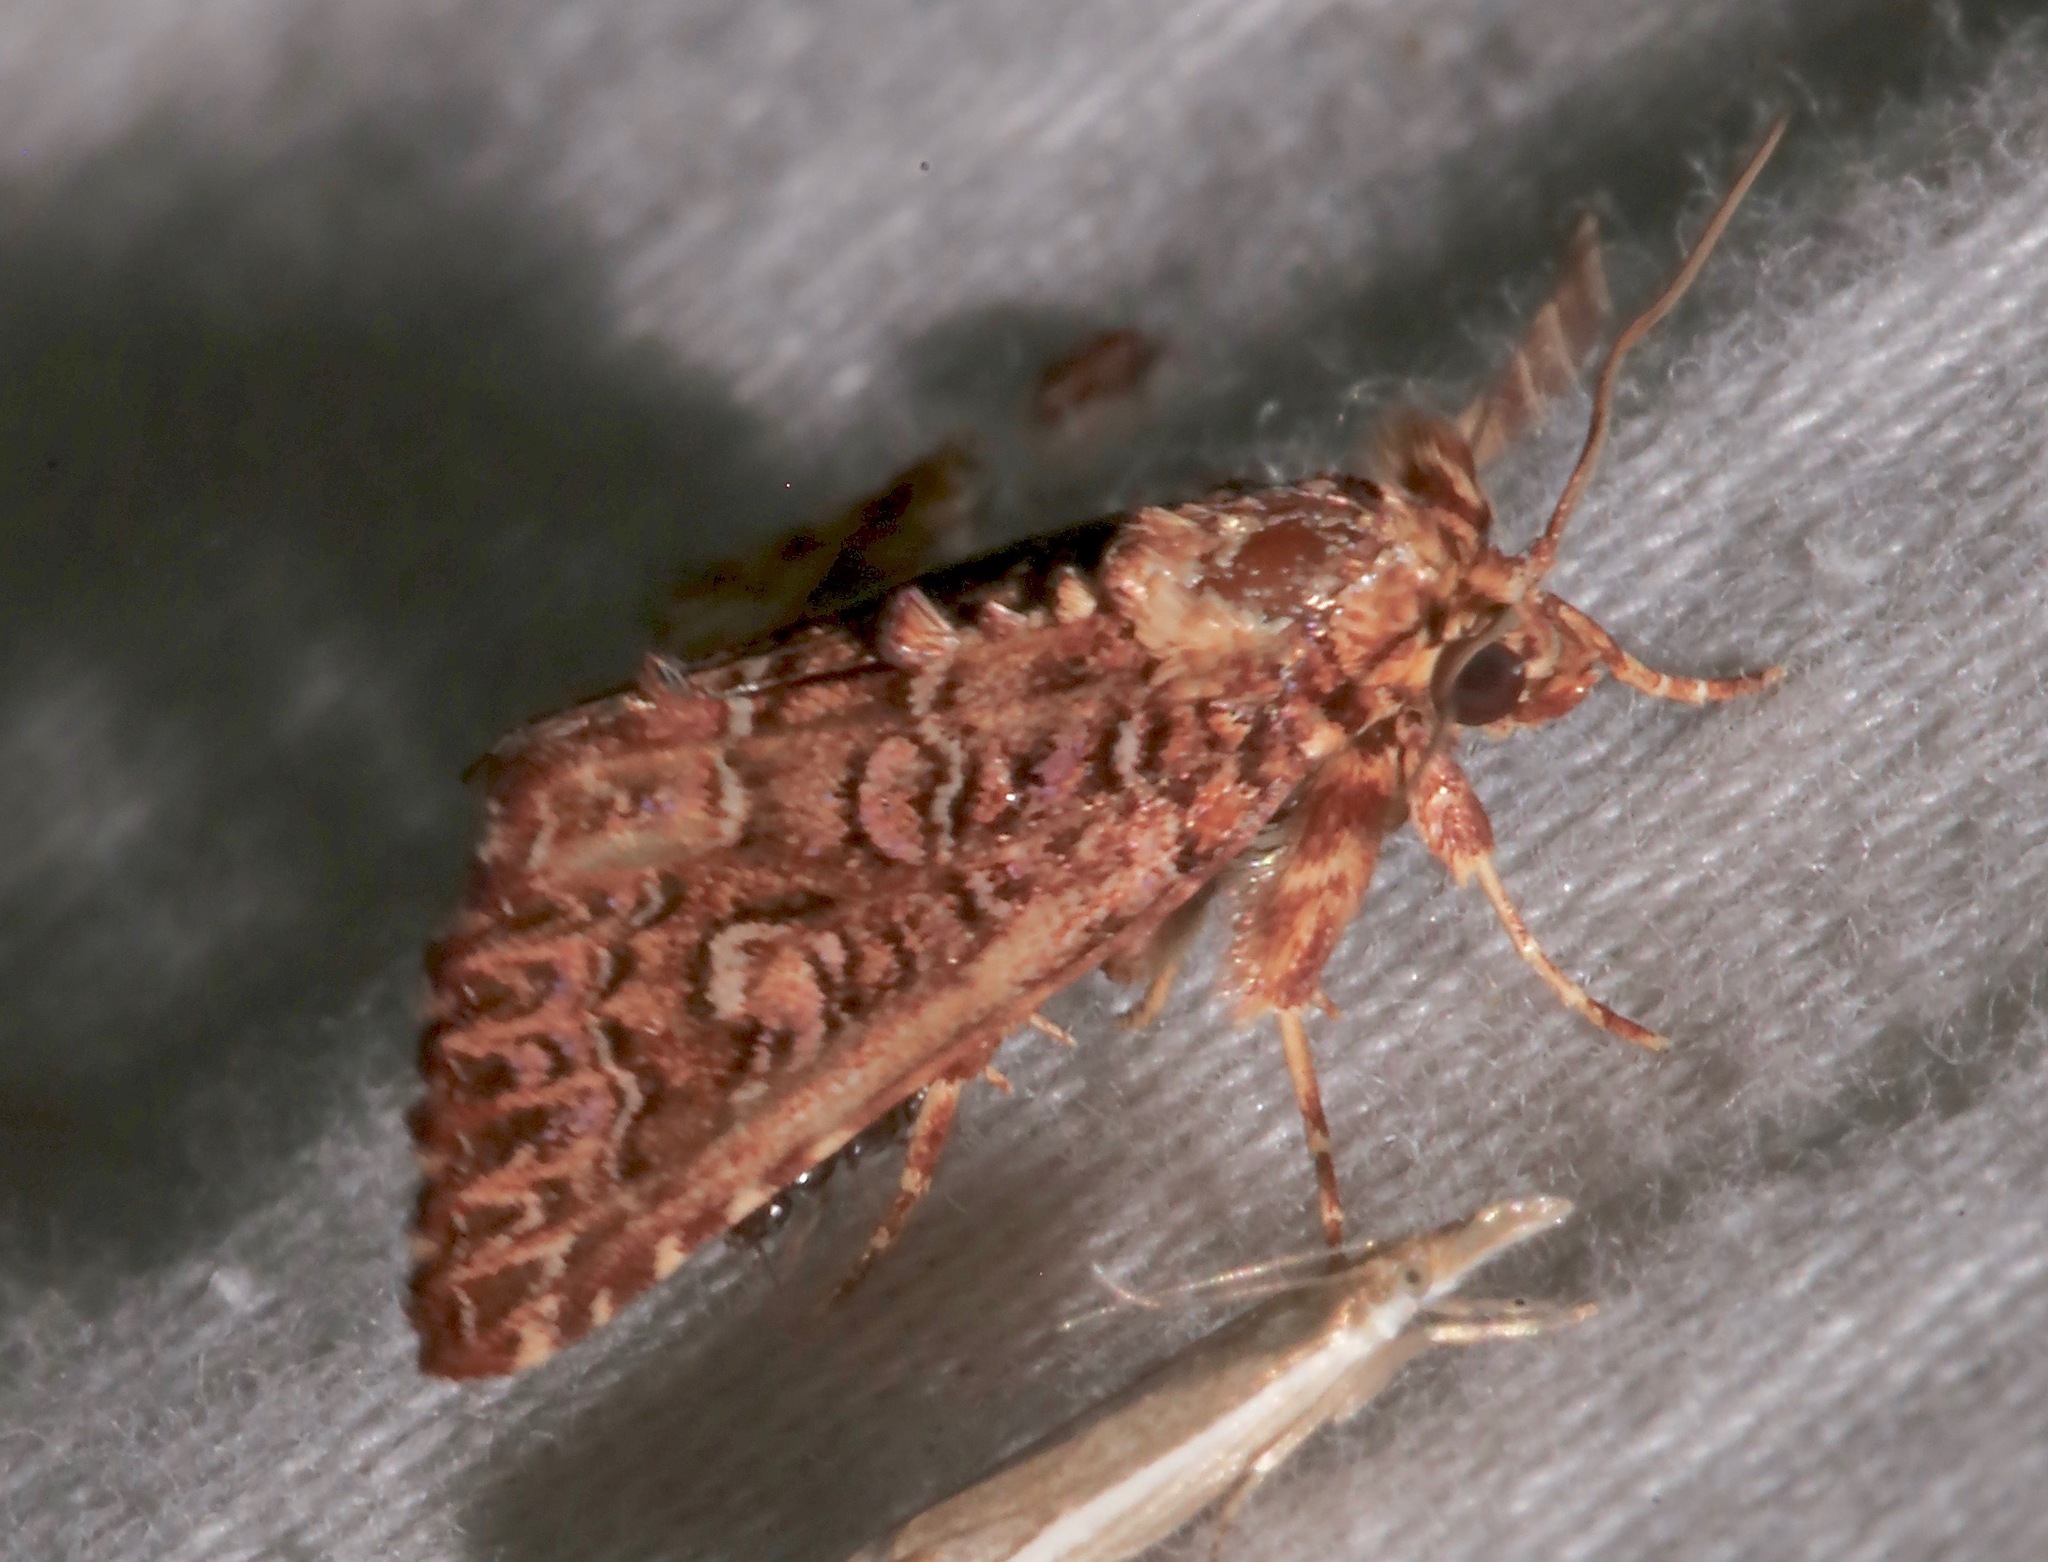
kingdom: Animalia
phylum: Arthropoda
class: Insecta
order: Lepidoptera
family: Noctuidae
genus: Callopistria
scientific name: Callopistria granitosa
